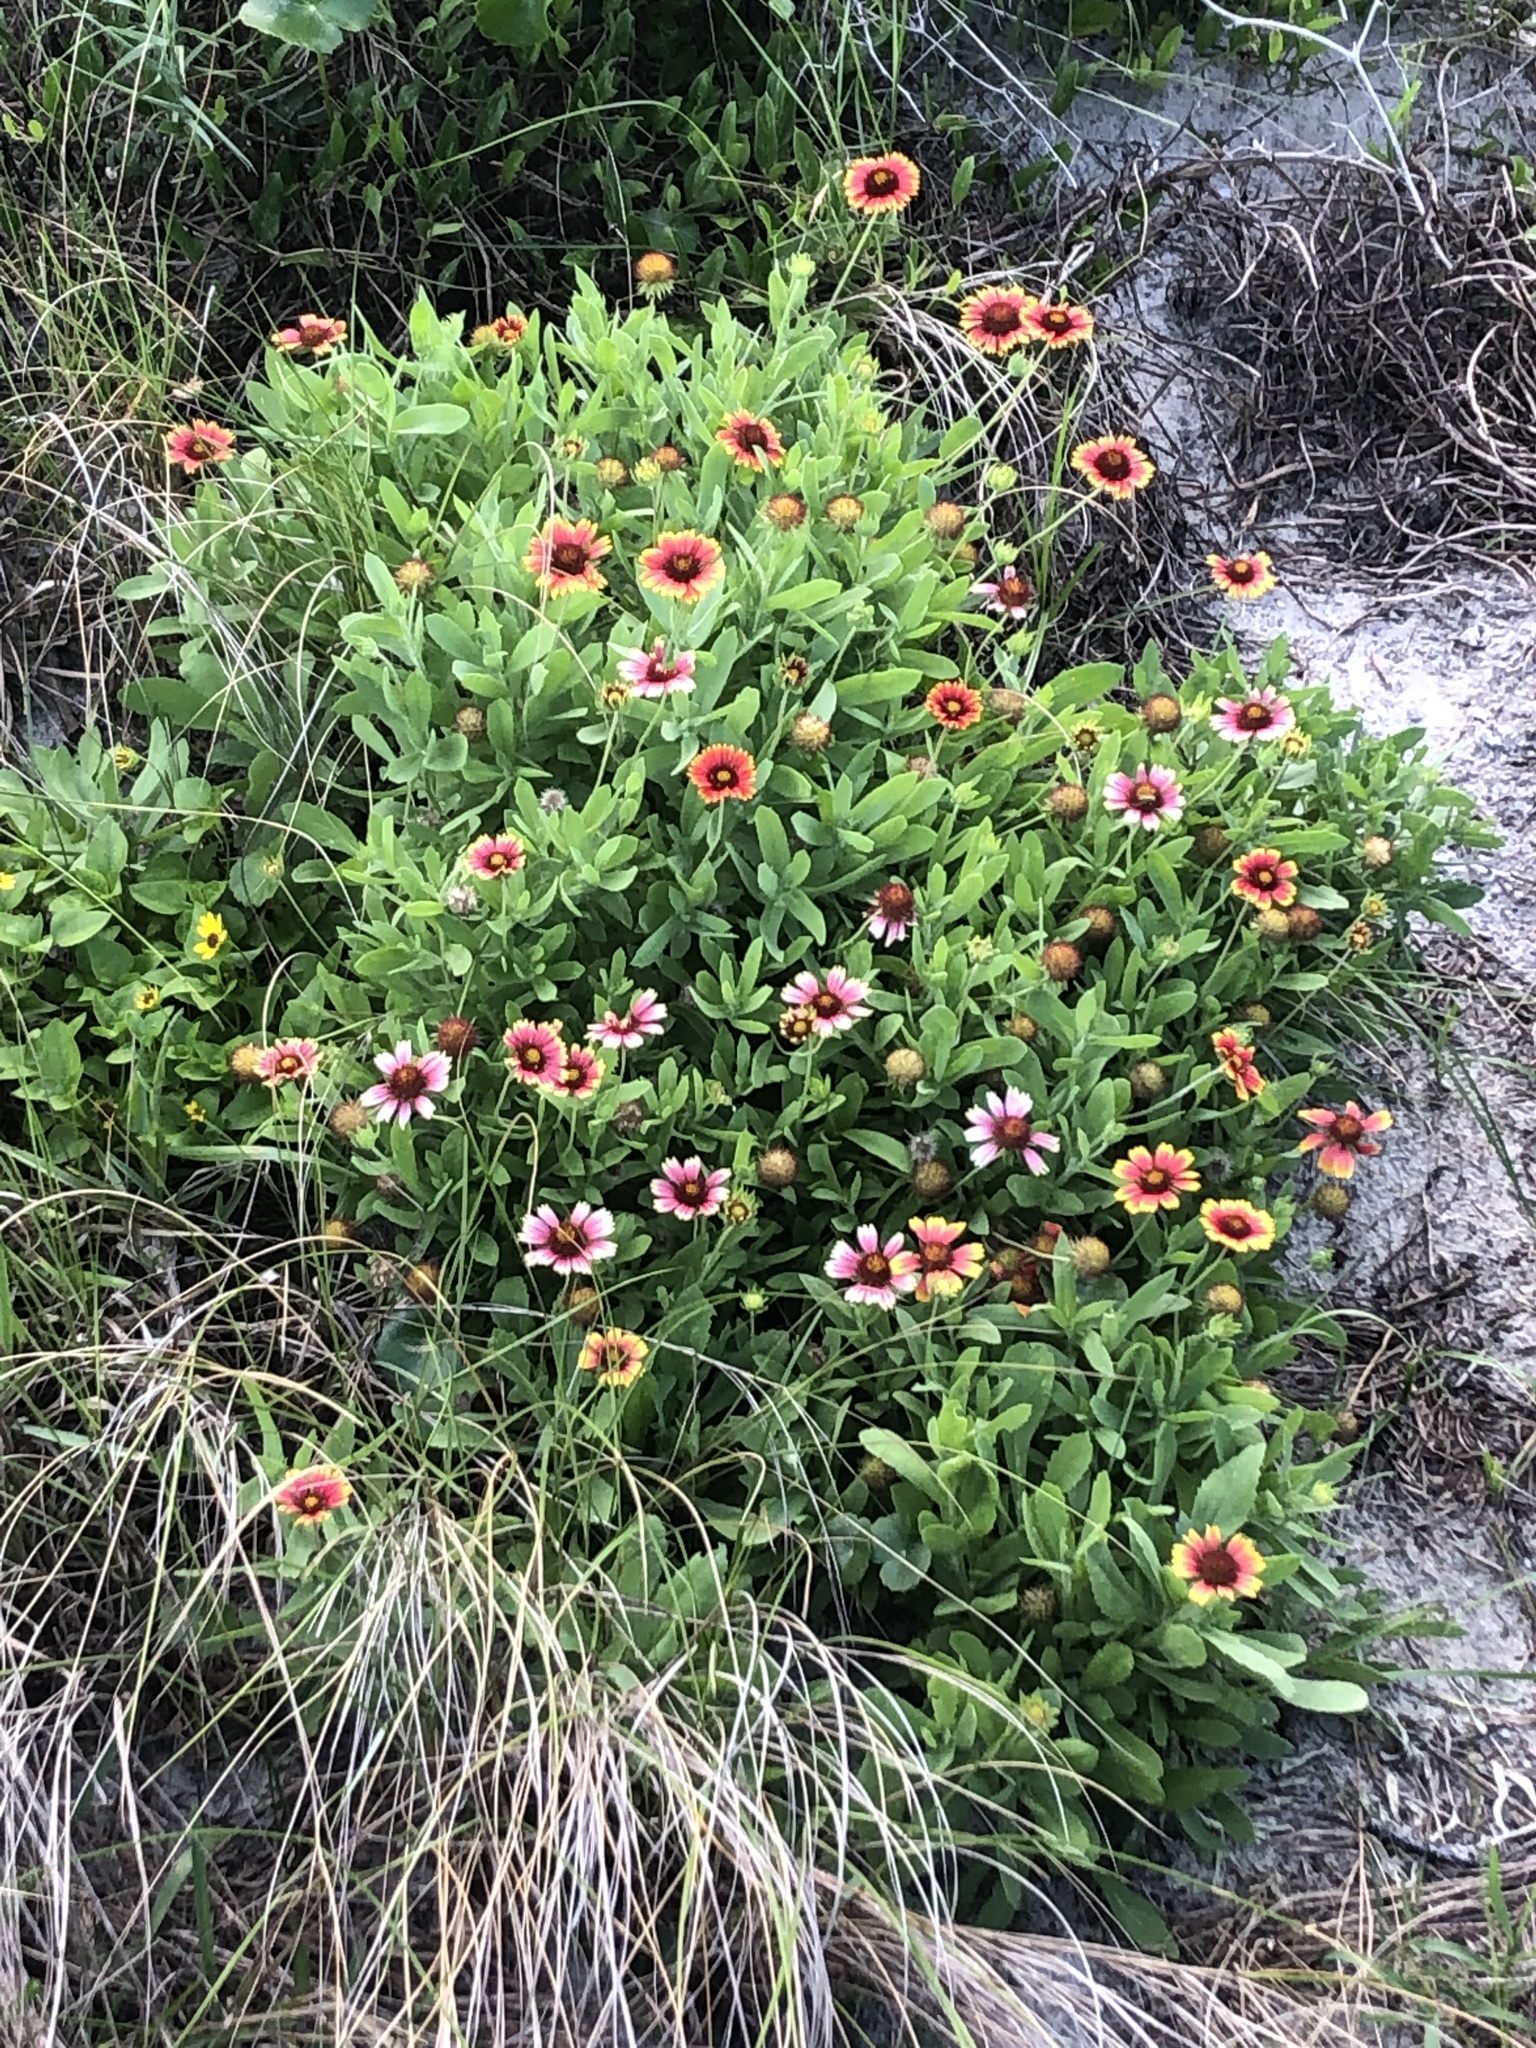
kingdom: Plantae
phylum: Tracheophyta
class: Magnoliopsida
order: Asterales
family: Asteraceae
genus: Gaillardia
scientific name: Gaillardia pulchella
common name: Firewheel
